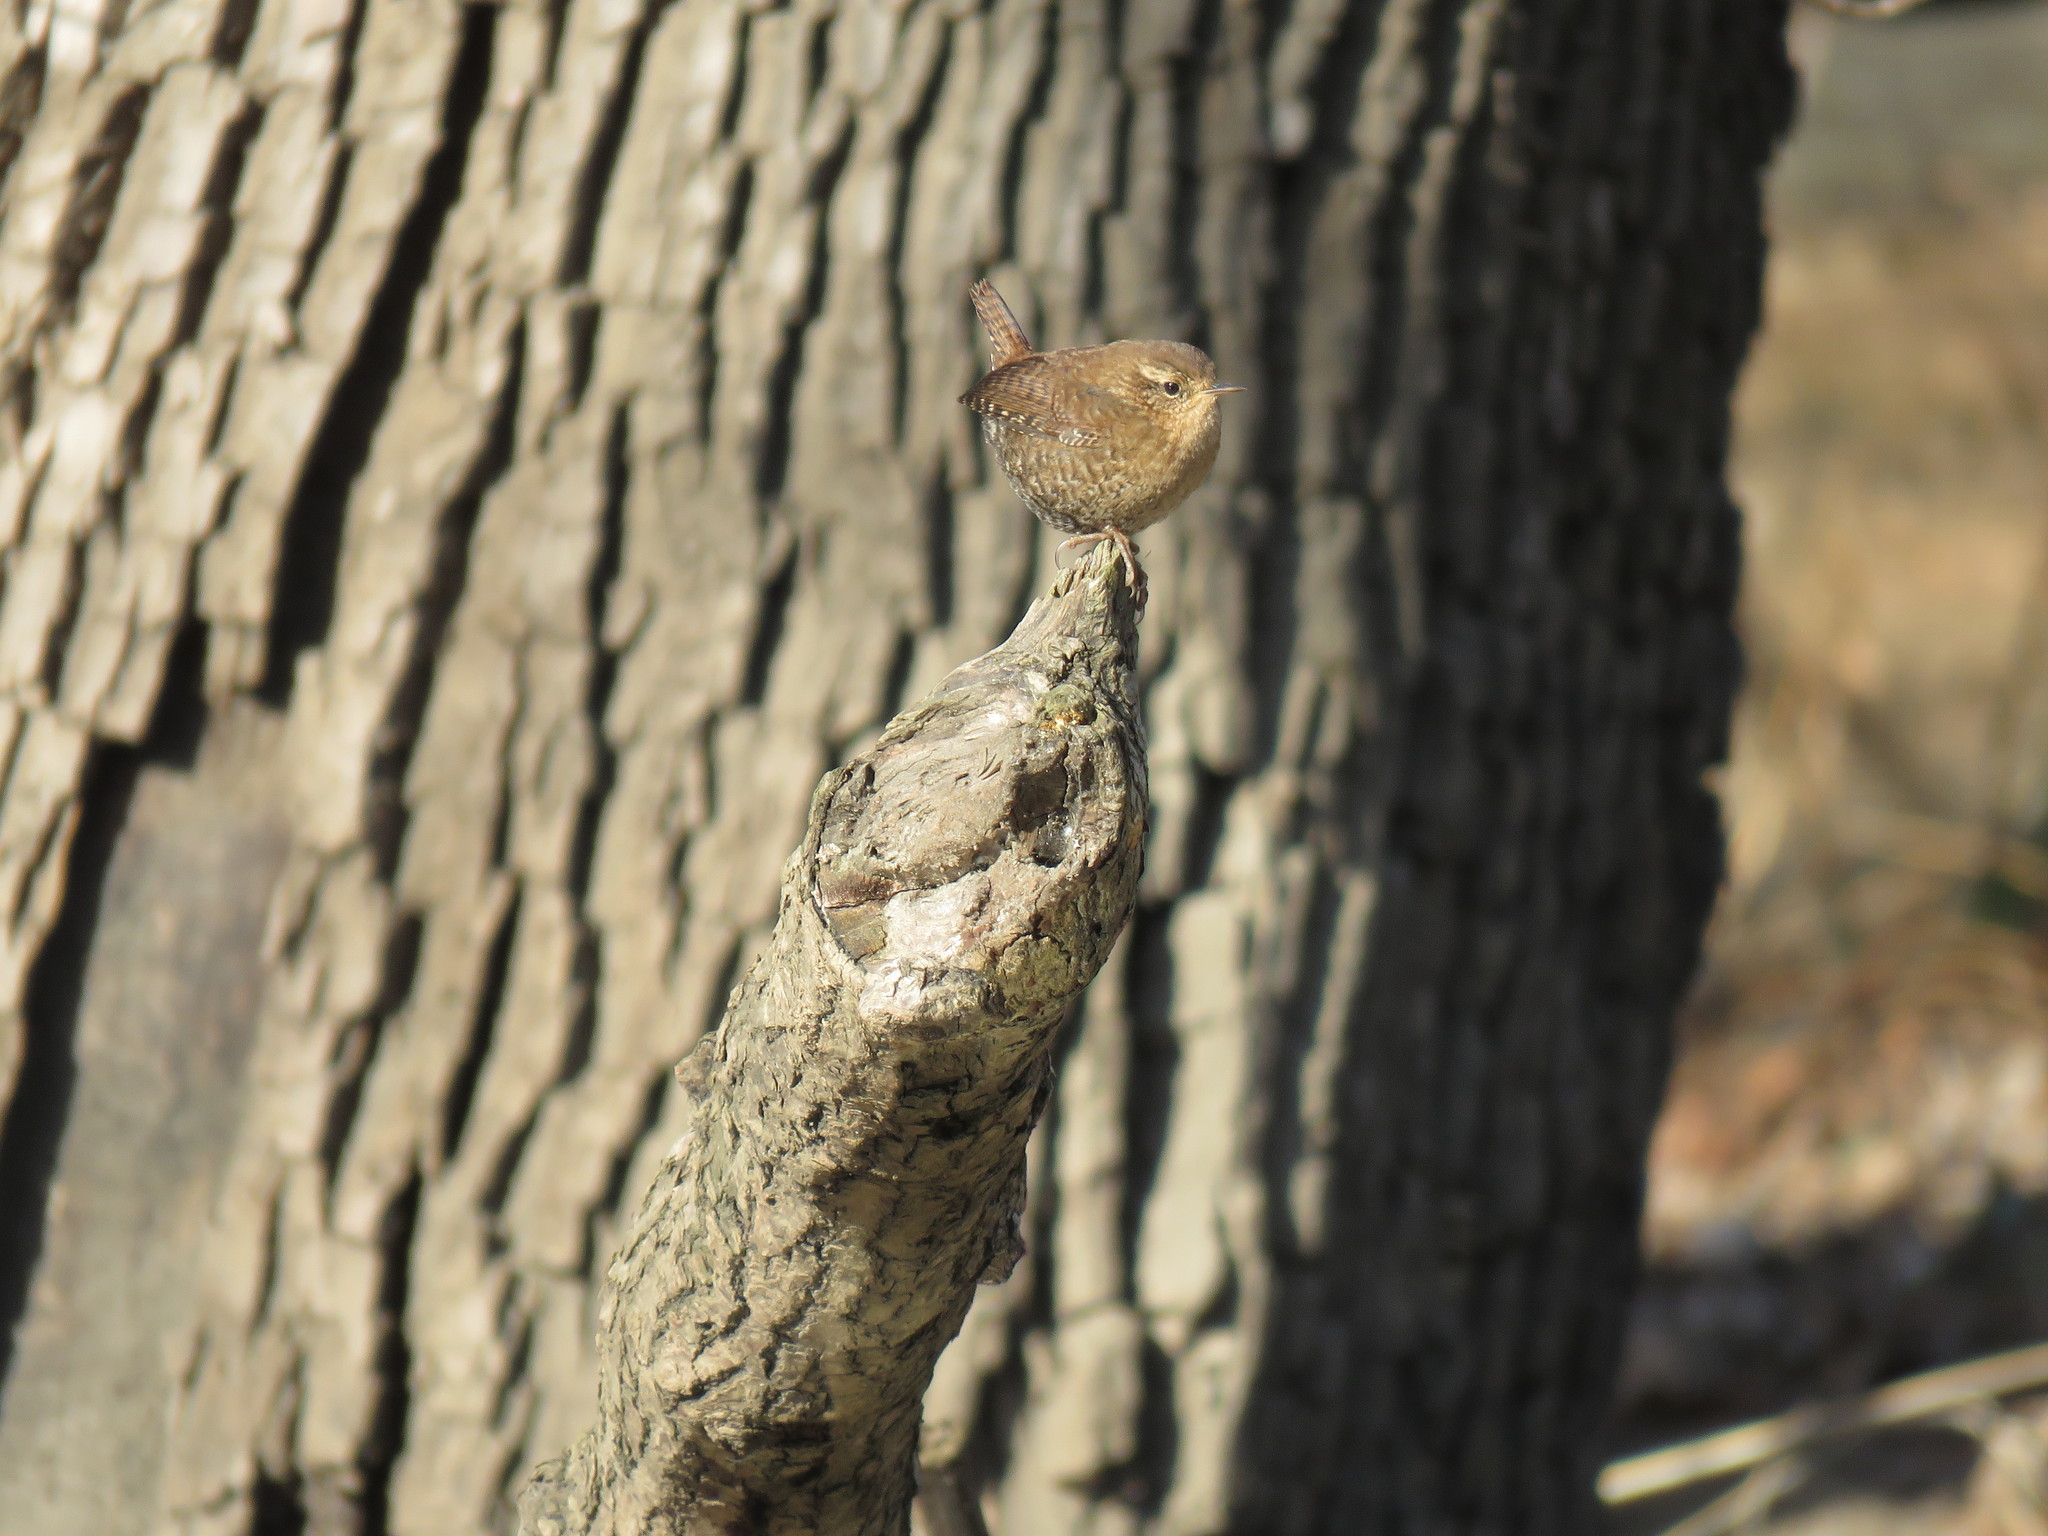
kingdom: Animalia
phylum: Chordata
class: Aves
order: Passeriformes
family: Troglodytidae
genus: Troglodytes
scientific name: Troglodytes hiemalis
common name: Winter wren
